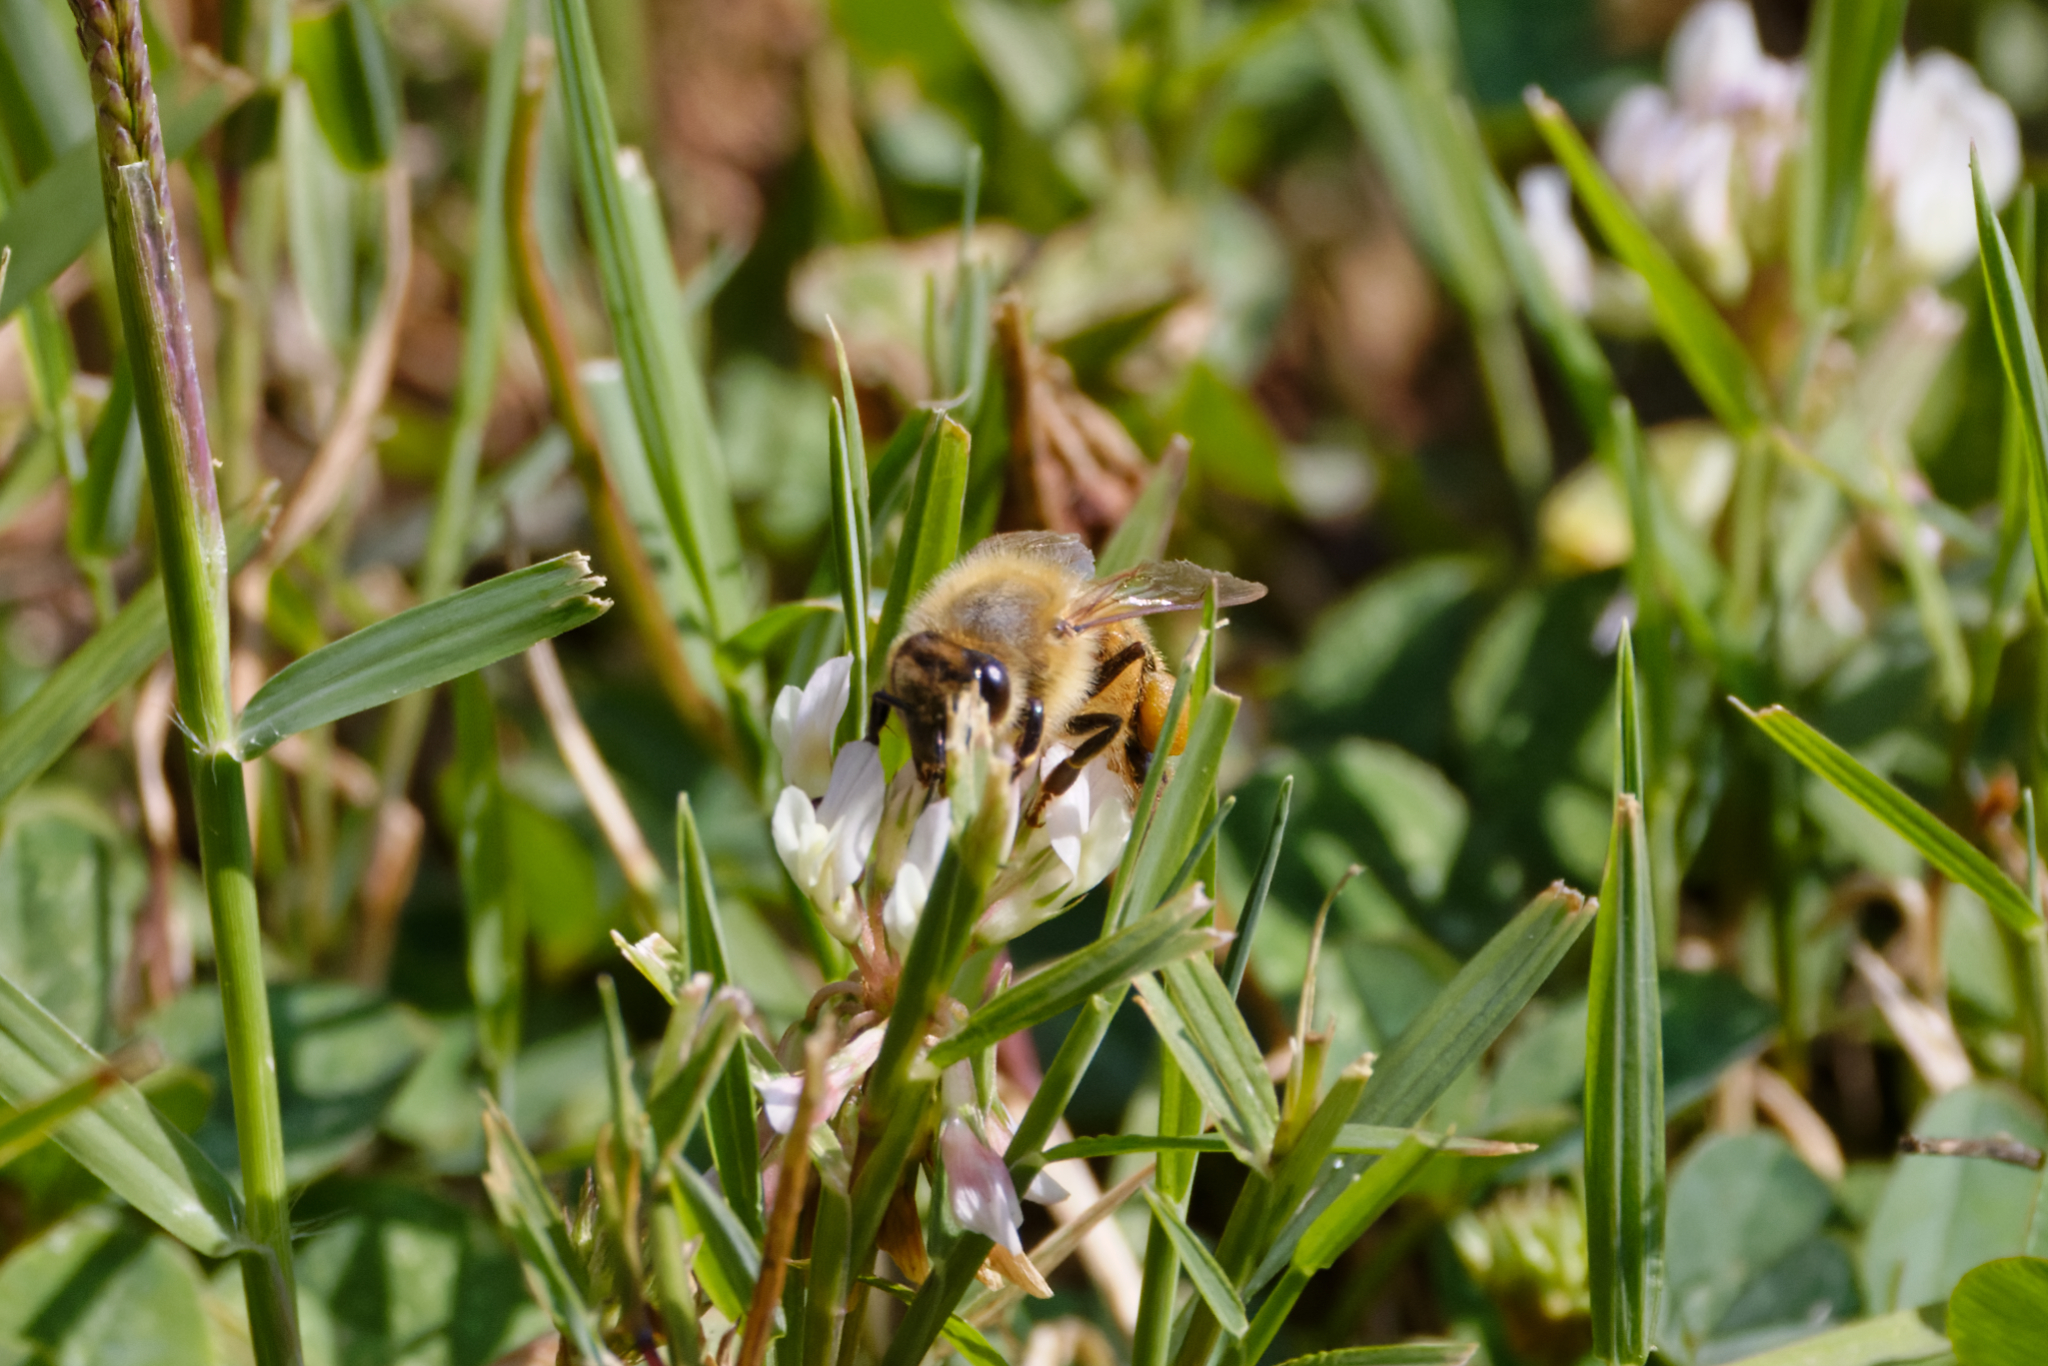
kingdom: Animalia
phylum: Arthropoda
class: Insecta
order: Hymenoptera
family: Apidae
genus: Apis
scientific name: Apis mellifera
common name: Honey bee
